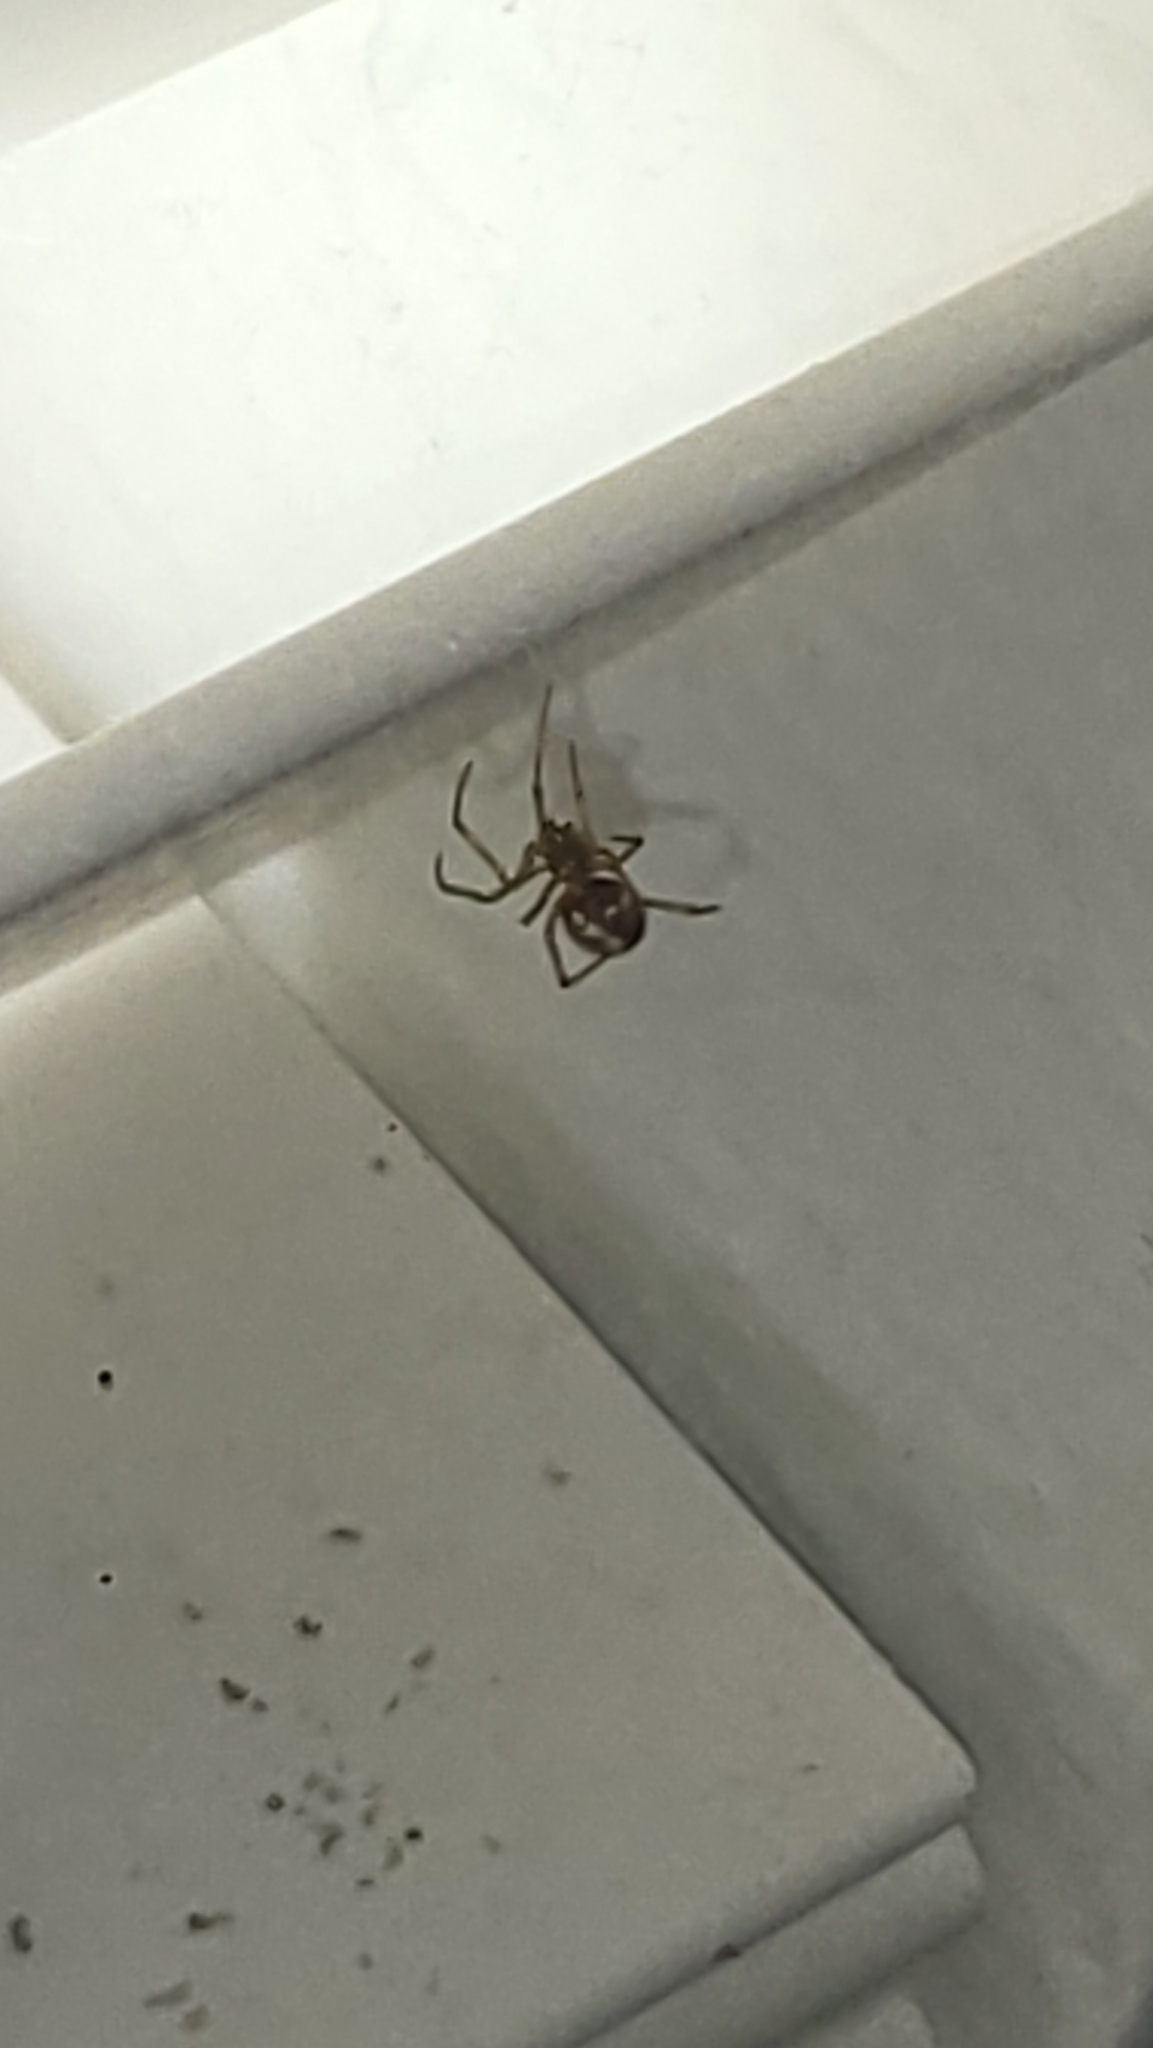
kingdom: Animalia
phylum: Arthropoda
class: Arachnida
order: Araneae
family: Theridiidae
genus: Parasteatoda
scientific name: Parasteatoda tepidariorum
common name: Common house spider
